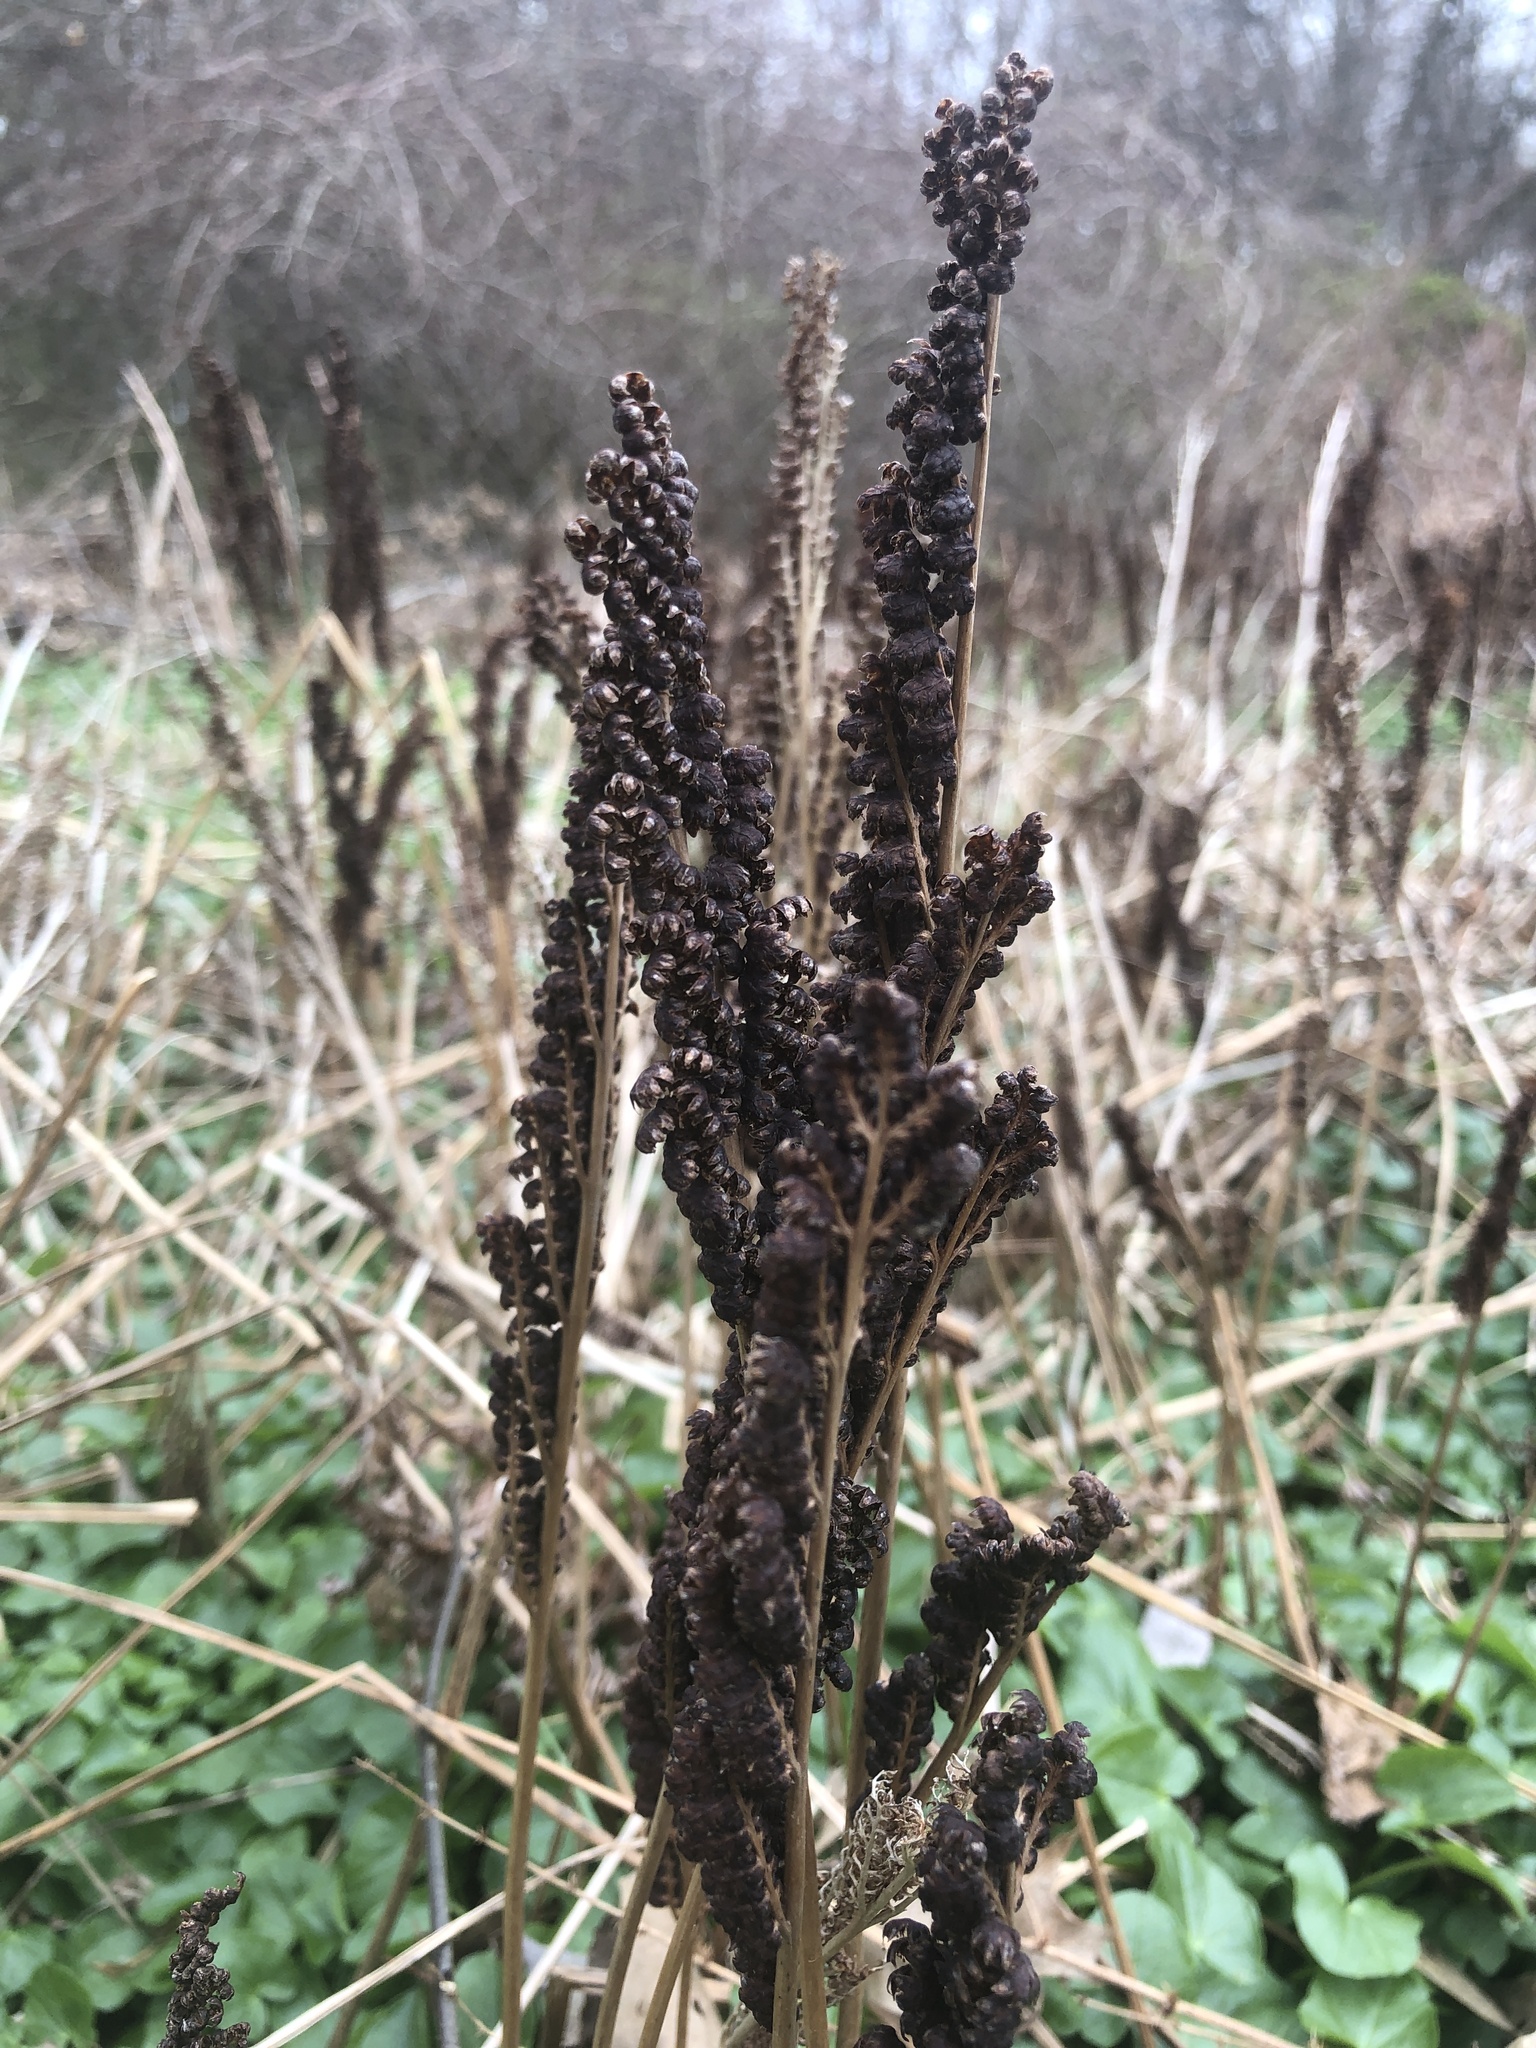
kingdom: Plantae
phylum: Tracheophyta
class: Polypodiopsida
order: Polypodiales
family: Onocleaceae
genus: Onoclea
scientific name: Onoclea sensibilis
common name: Sensitive fern
